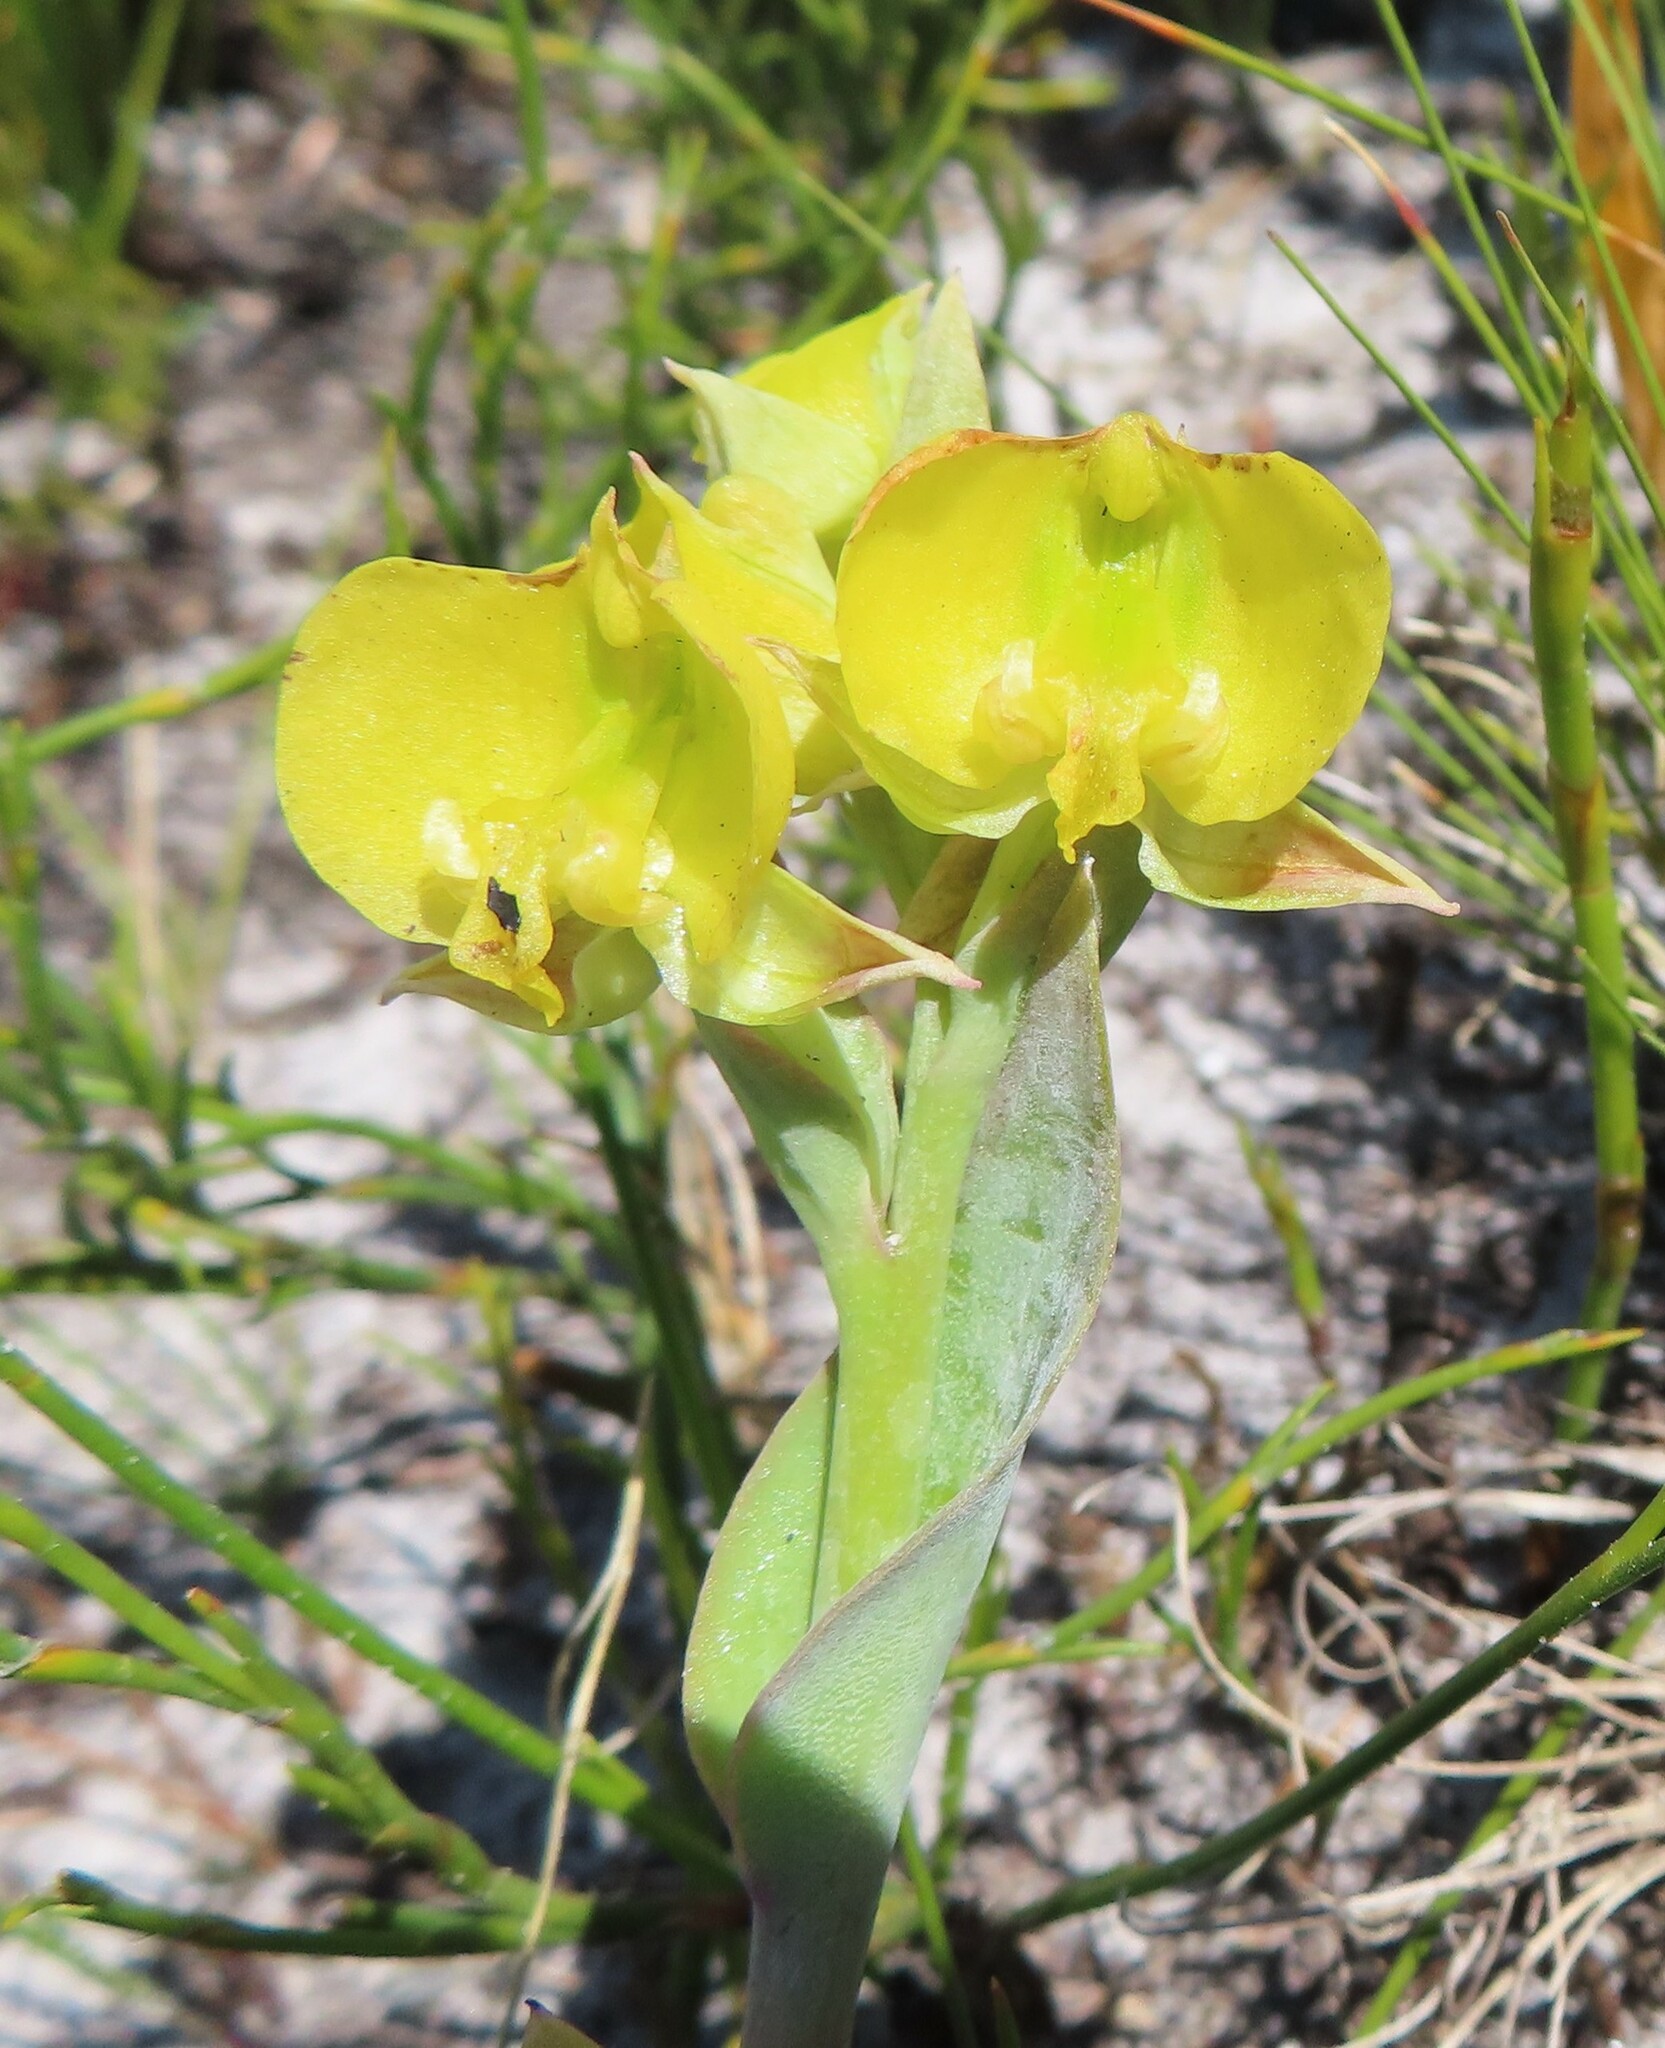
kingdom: Plantae
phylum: Tracheophyta
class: Liliopsida
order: Asparagales
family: Orchidaceae
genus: Pterygodium
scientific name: Pterygodium acutifolium
